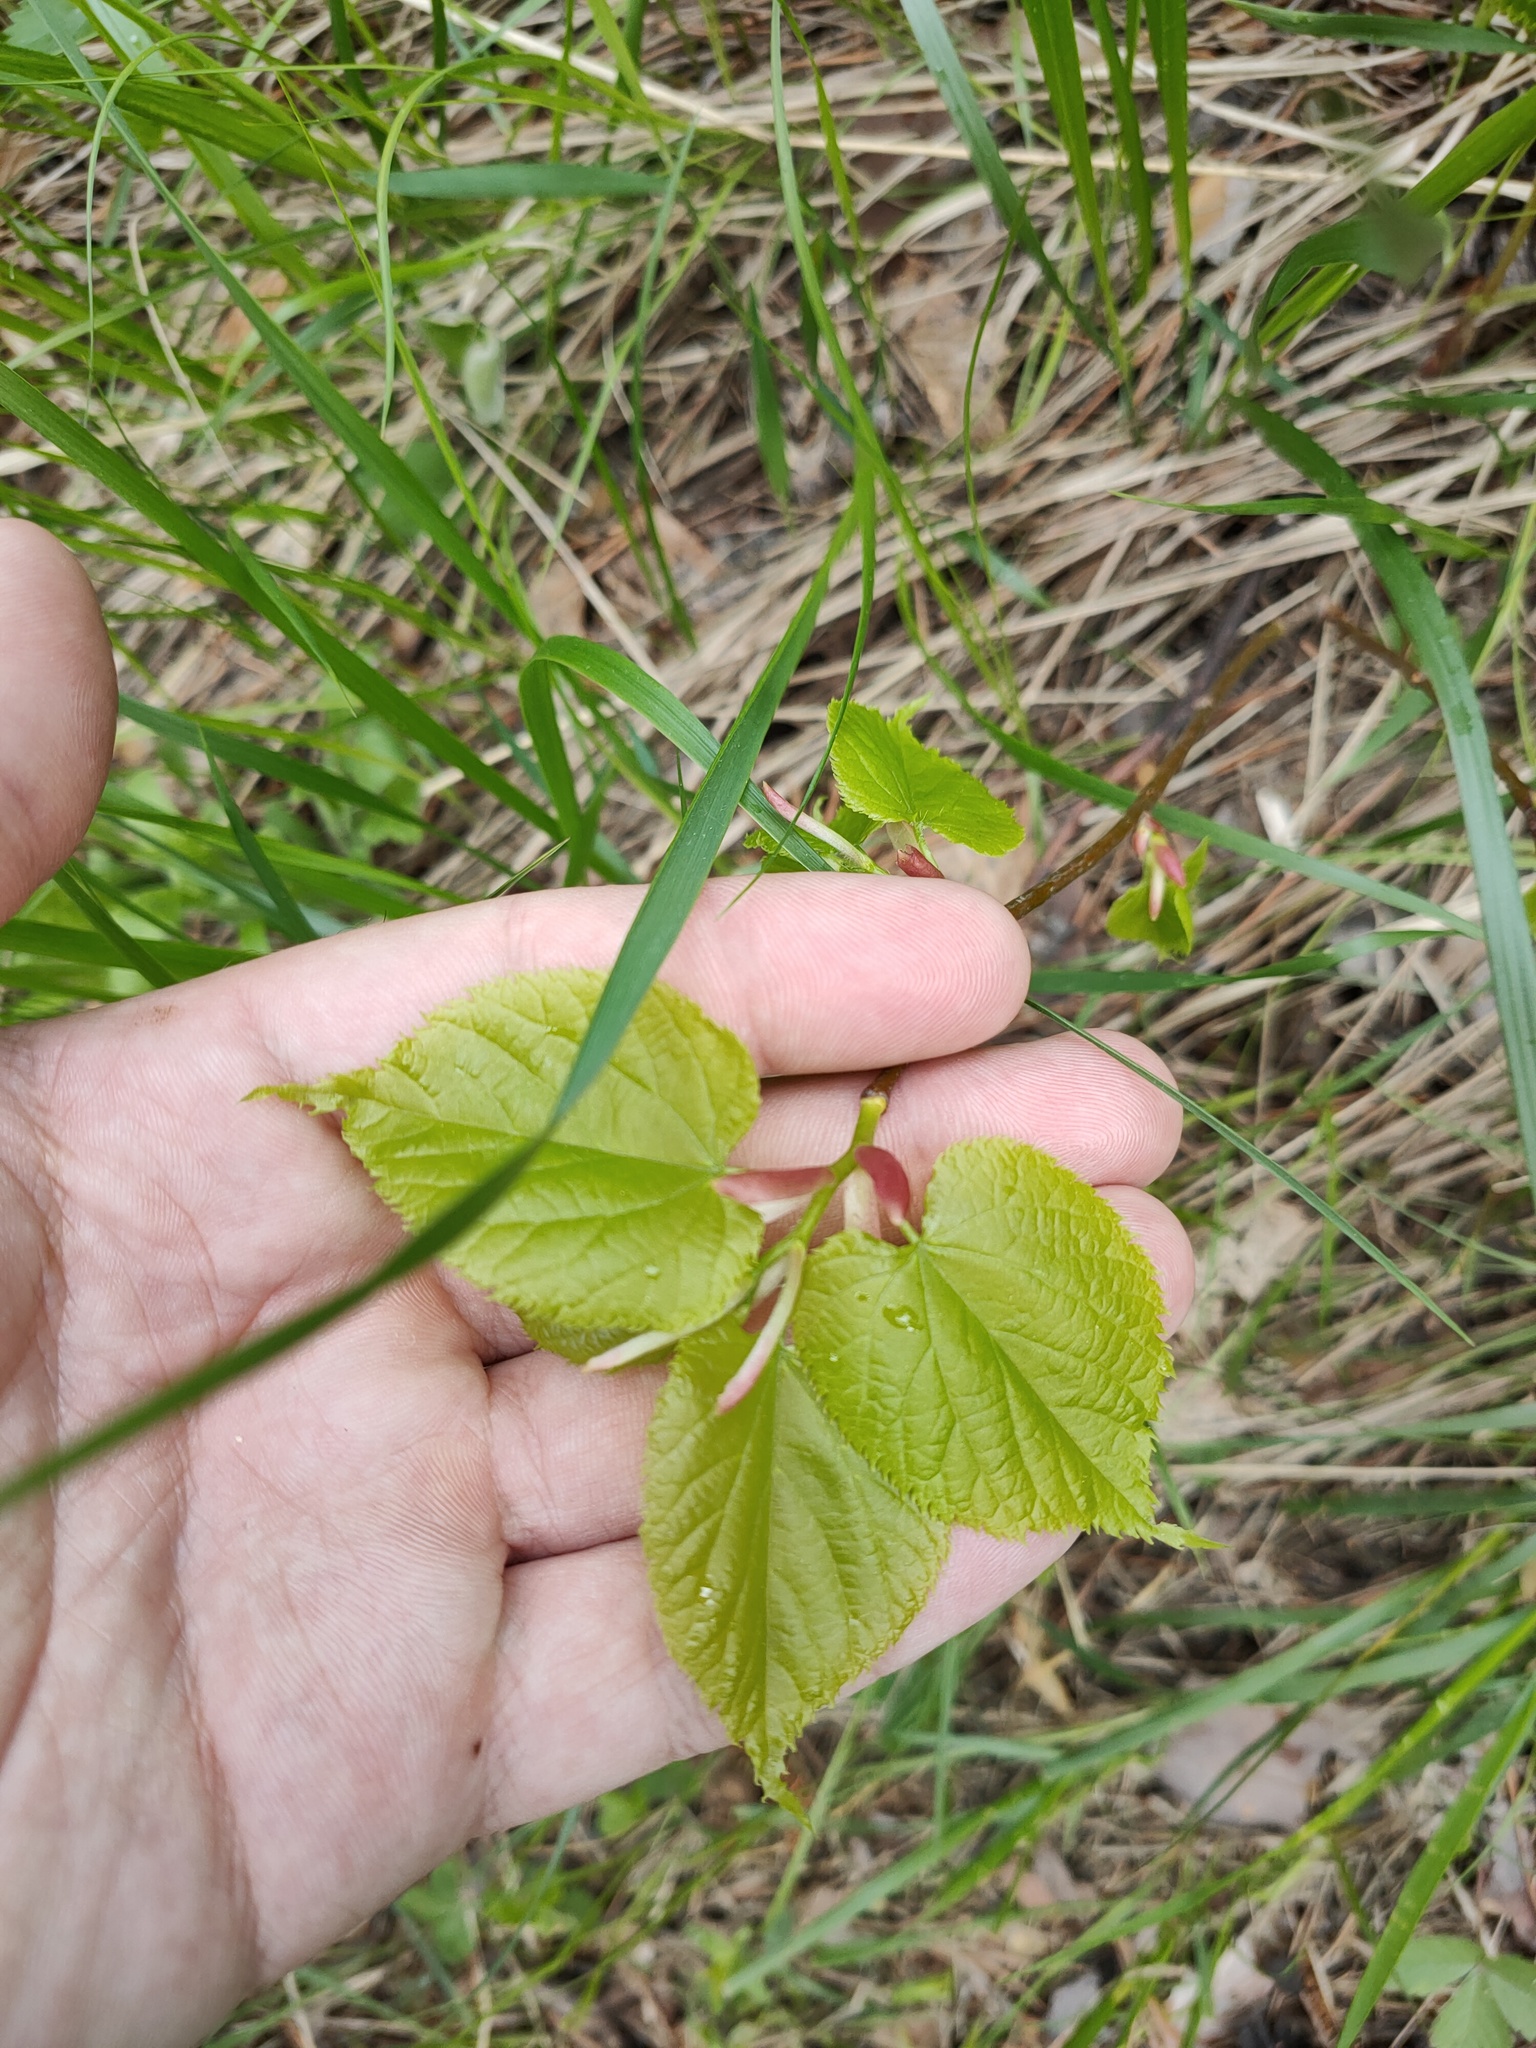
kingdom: Plantae
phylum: Tracheophyta
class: Magnoliopsida
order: Malvales
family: Malvaceae
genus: Tilia
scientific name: Tilia cordata
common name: Small-leaved lime
